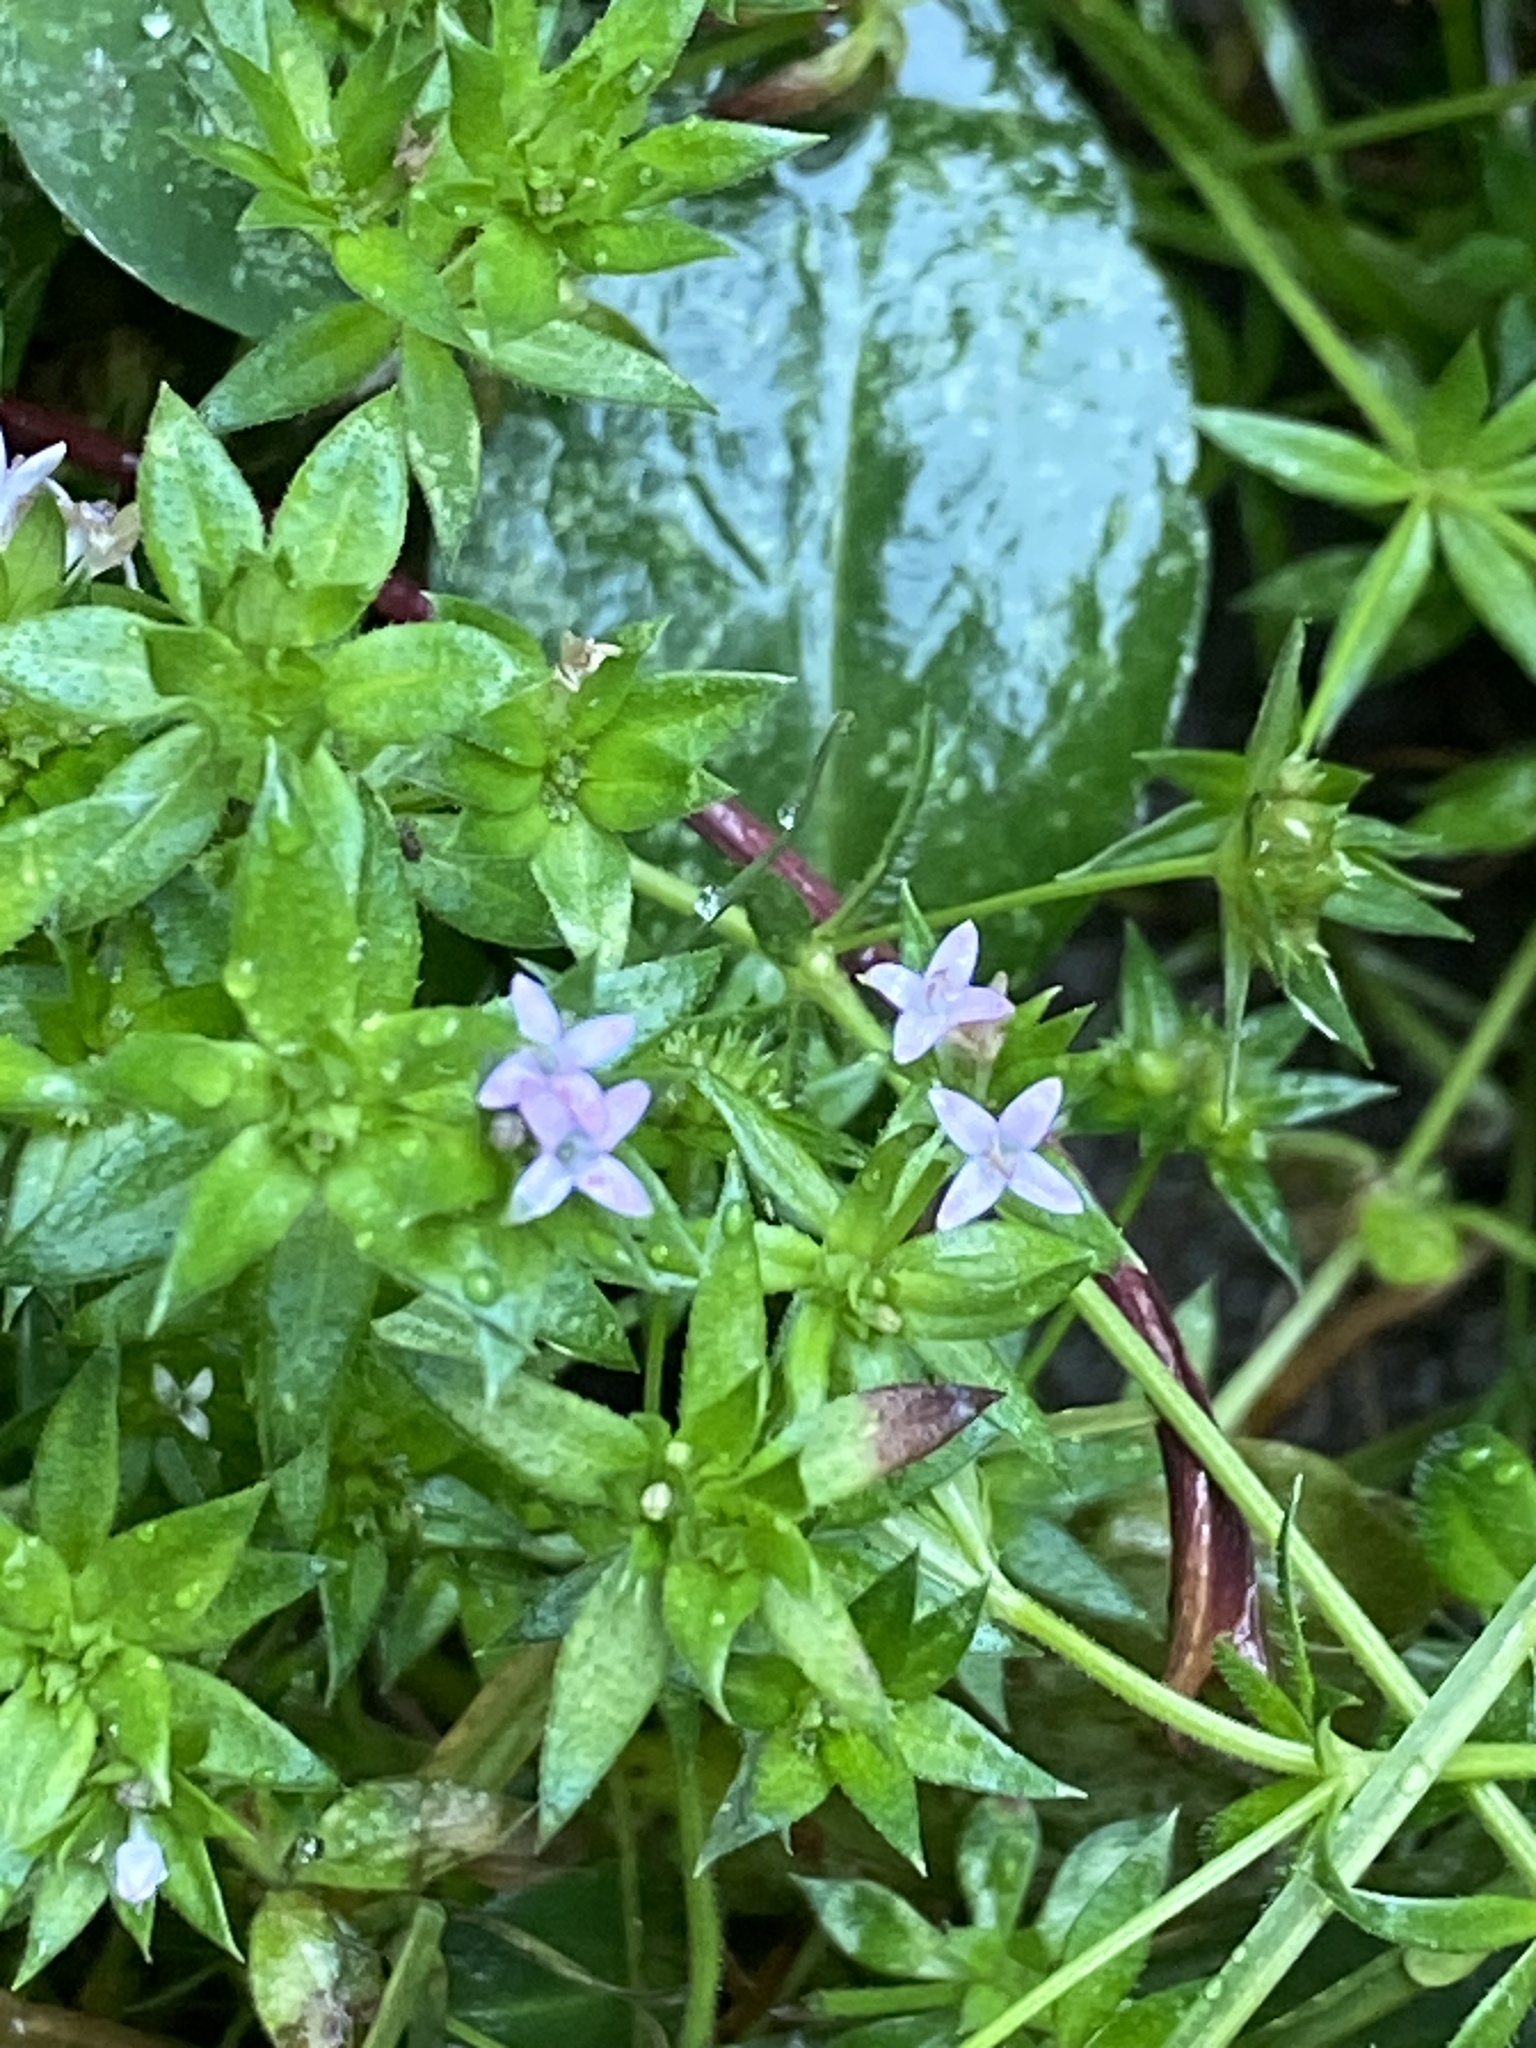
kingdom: Plantae
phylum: Tracheophyta
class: Magnoliopsida
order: Gentianales
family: Rubiaceae
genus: Sherardia
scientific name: Sherardia arvensis
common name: Field madder
